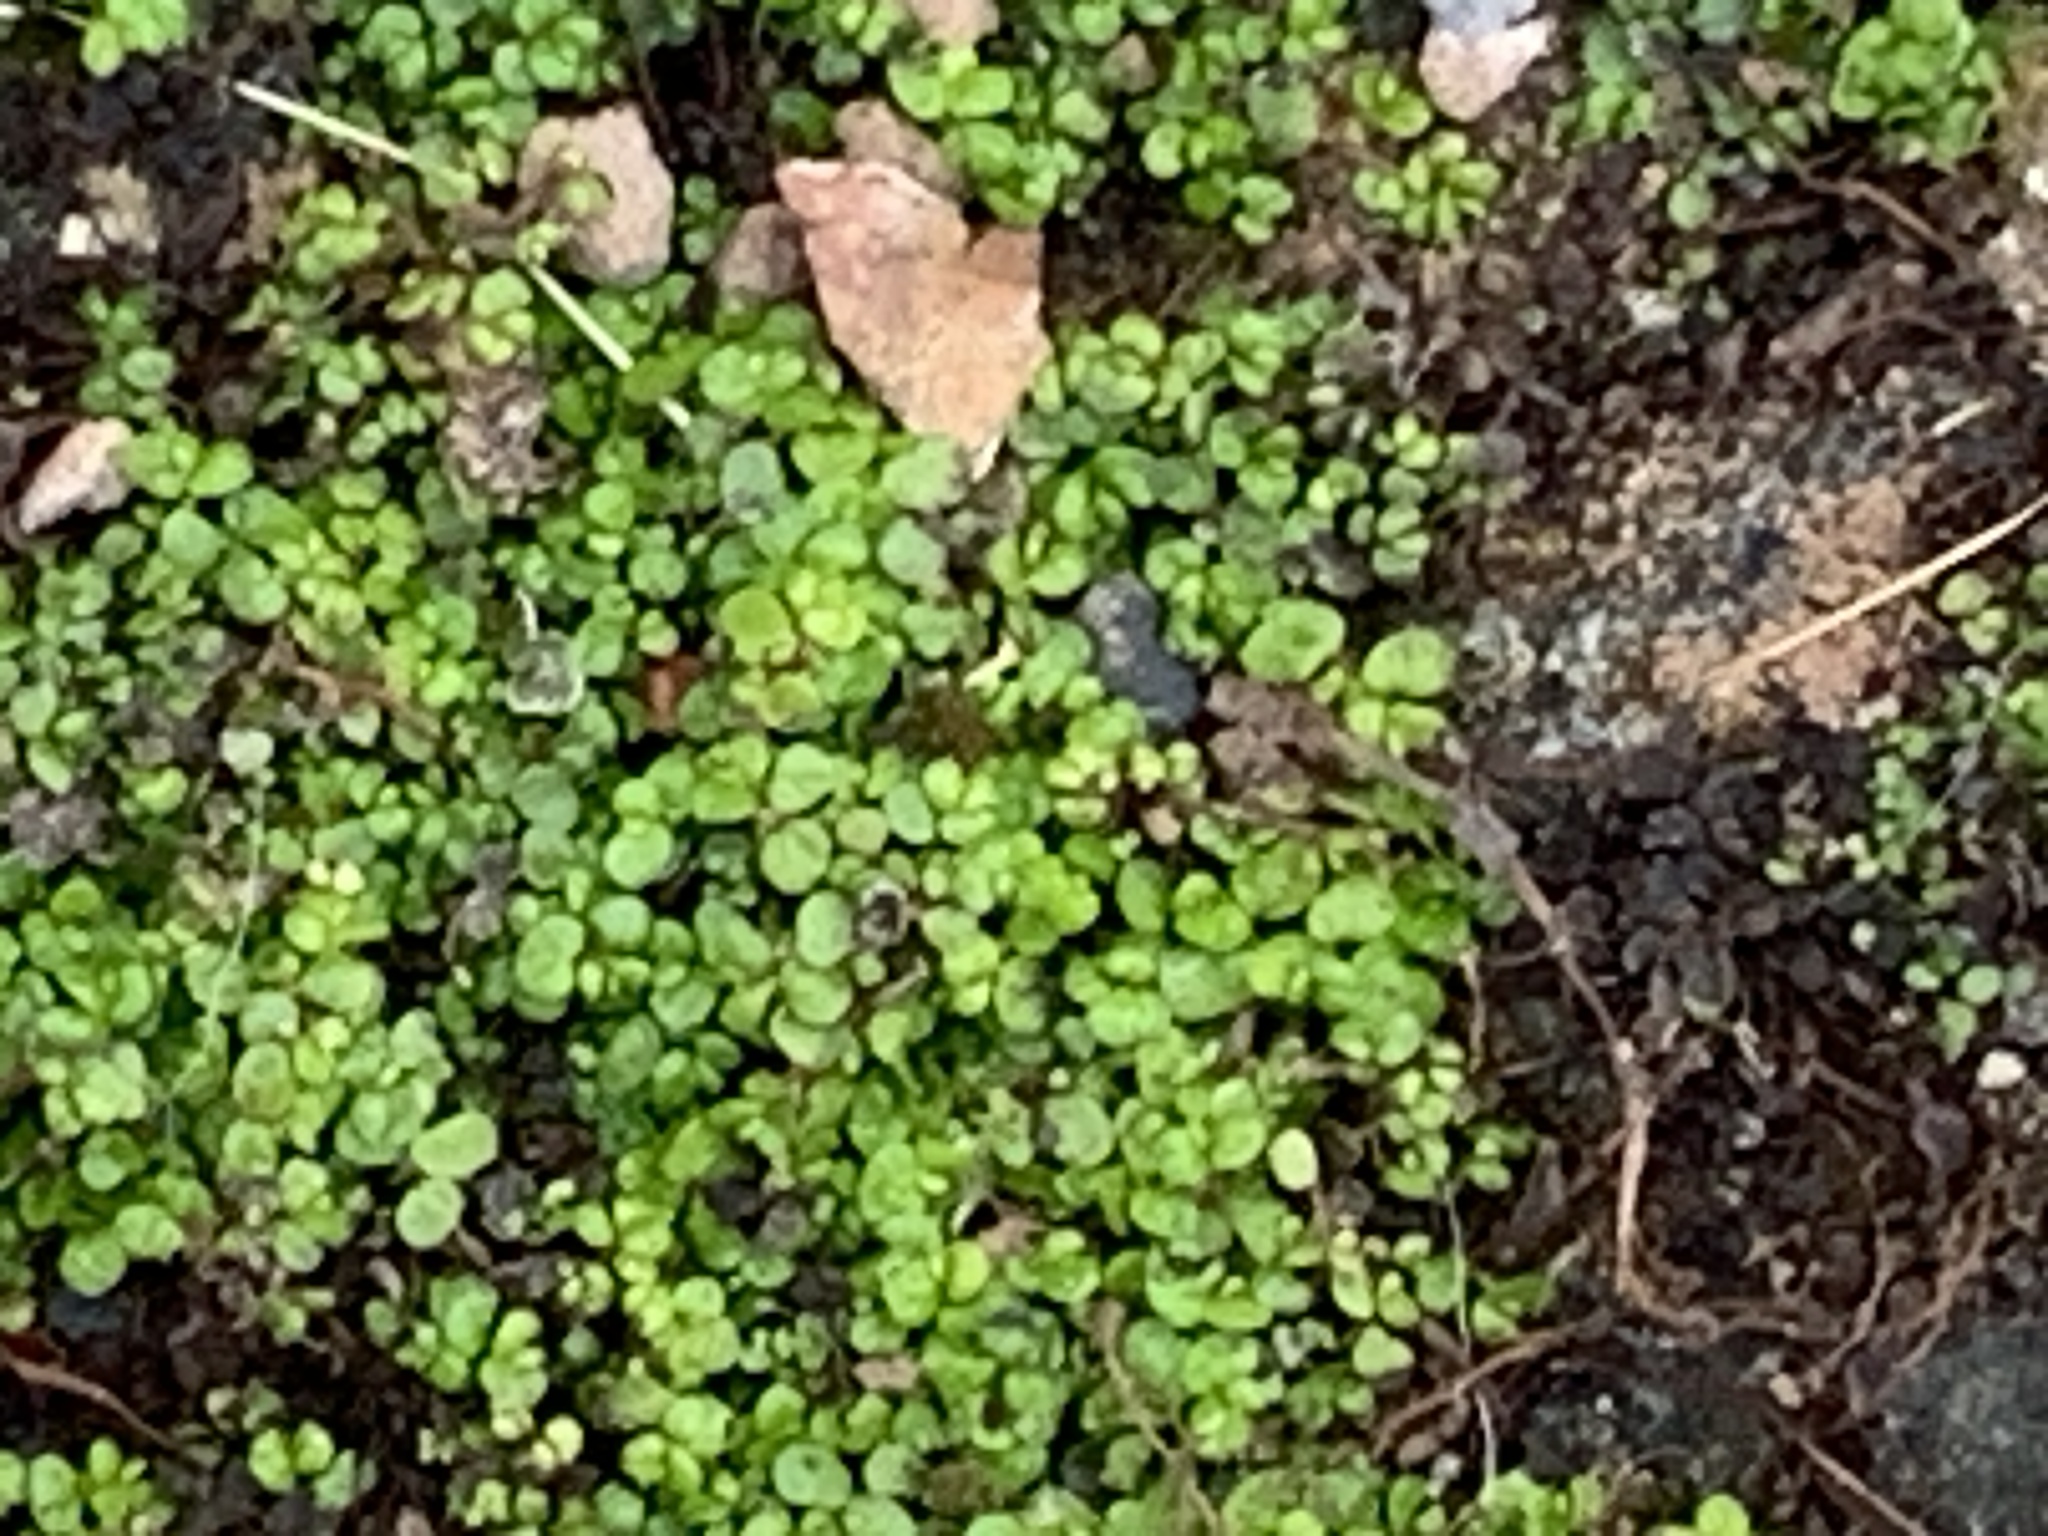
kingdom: Plantae
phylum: Tracheophyta
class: Magnoliopsida
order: Rosales
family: Urticaceae
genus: Soleirolia
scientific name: Soleirolia soleirolii
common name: Mind-your-own-business
